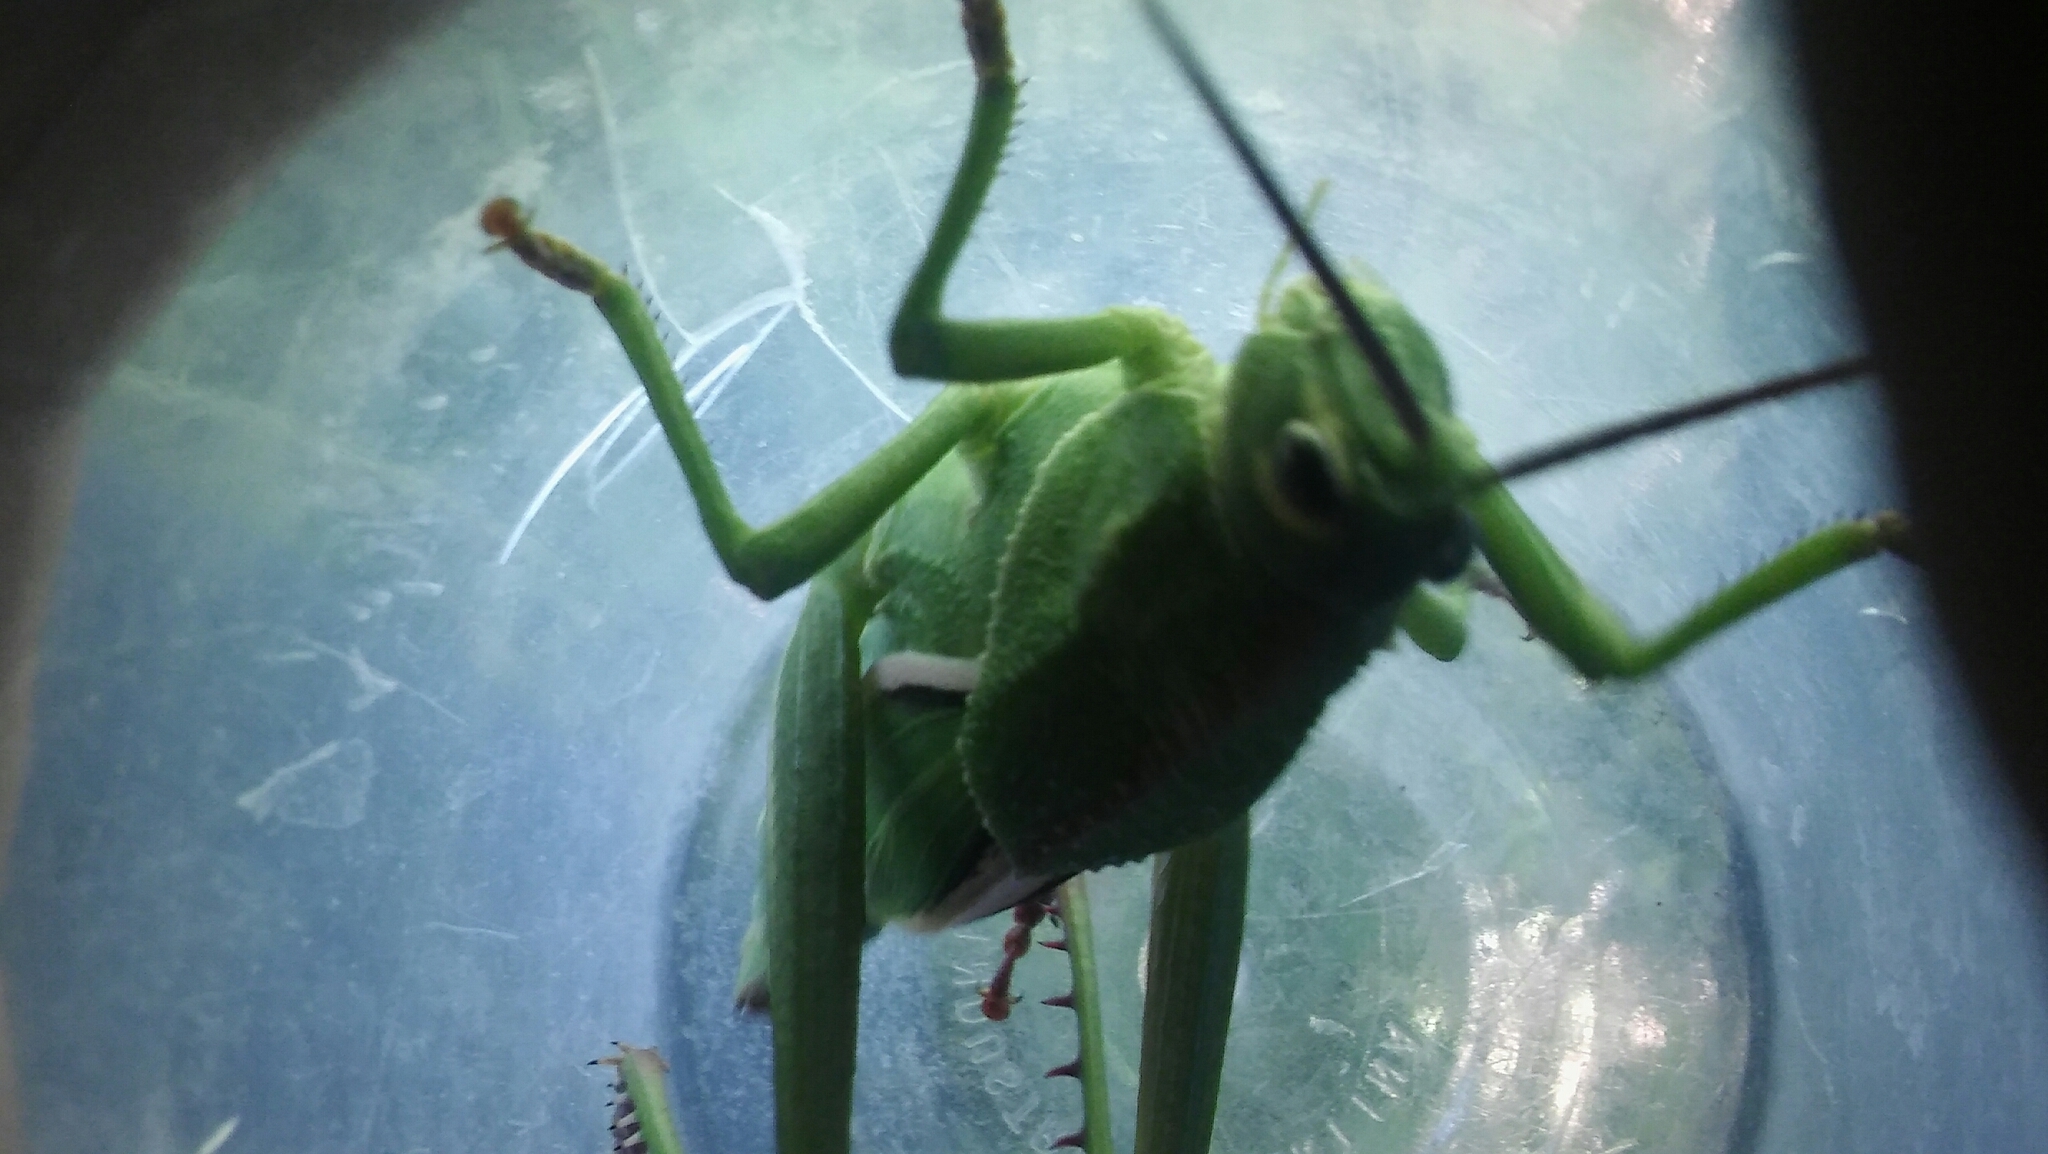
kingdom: Animalia
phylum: Arthropoda
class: Insecta
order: Orthoptera
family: Romaleidae
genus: Staleochlora
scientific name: Staleochlora viridicata
